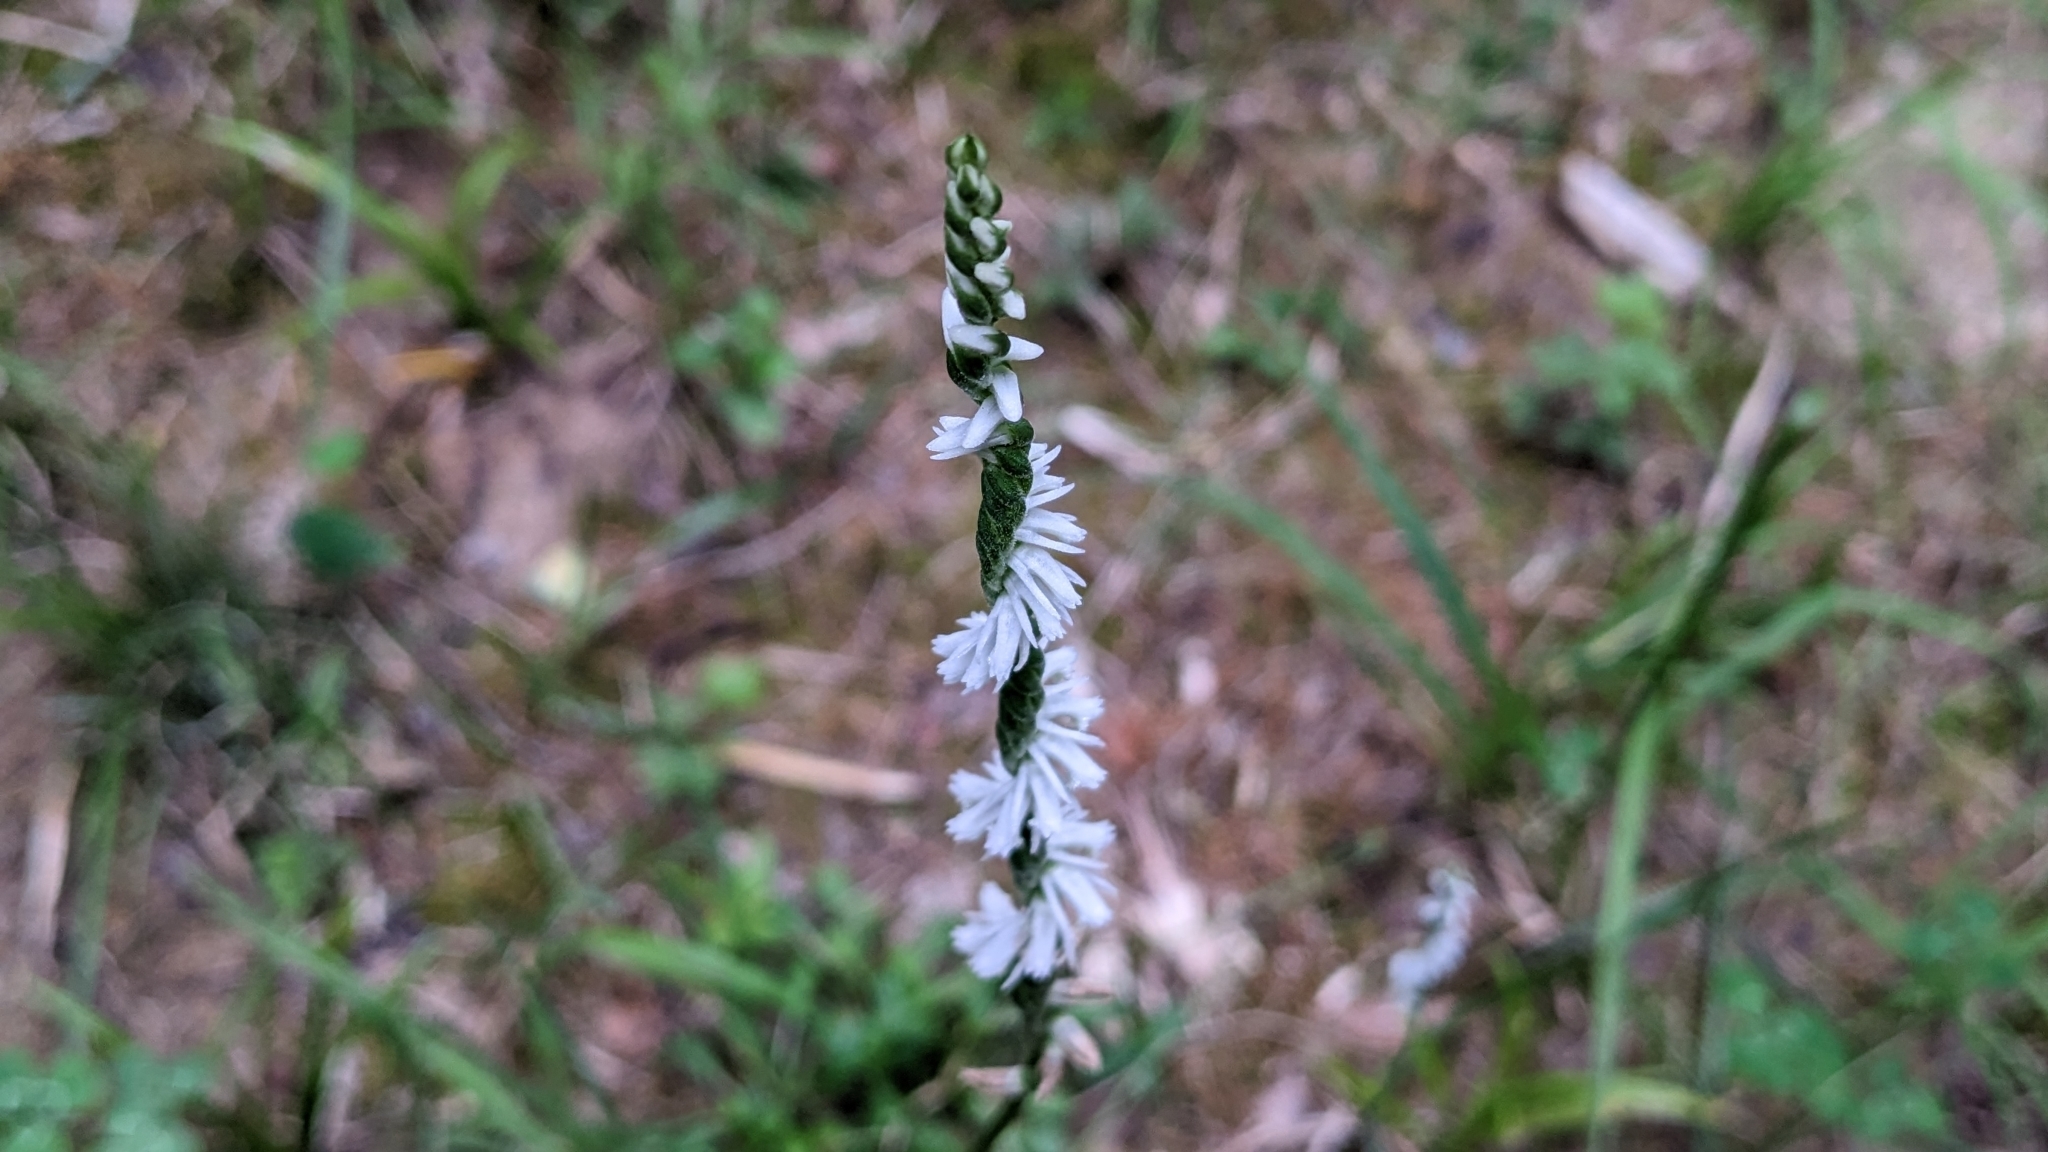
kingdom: Plantae
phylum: Tracheophyta
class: Liliopsida
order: Asparagales
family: Orchidaceae
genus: Spiranthes
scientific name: Spiranthes lacera
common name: Northern slender ladies'-tresses
